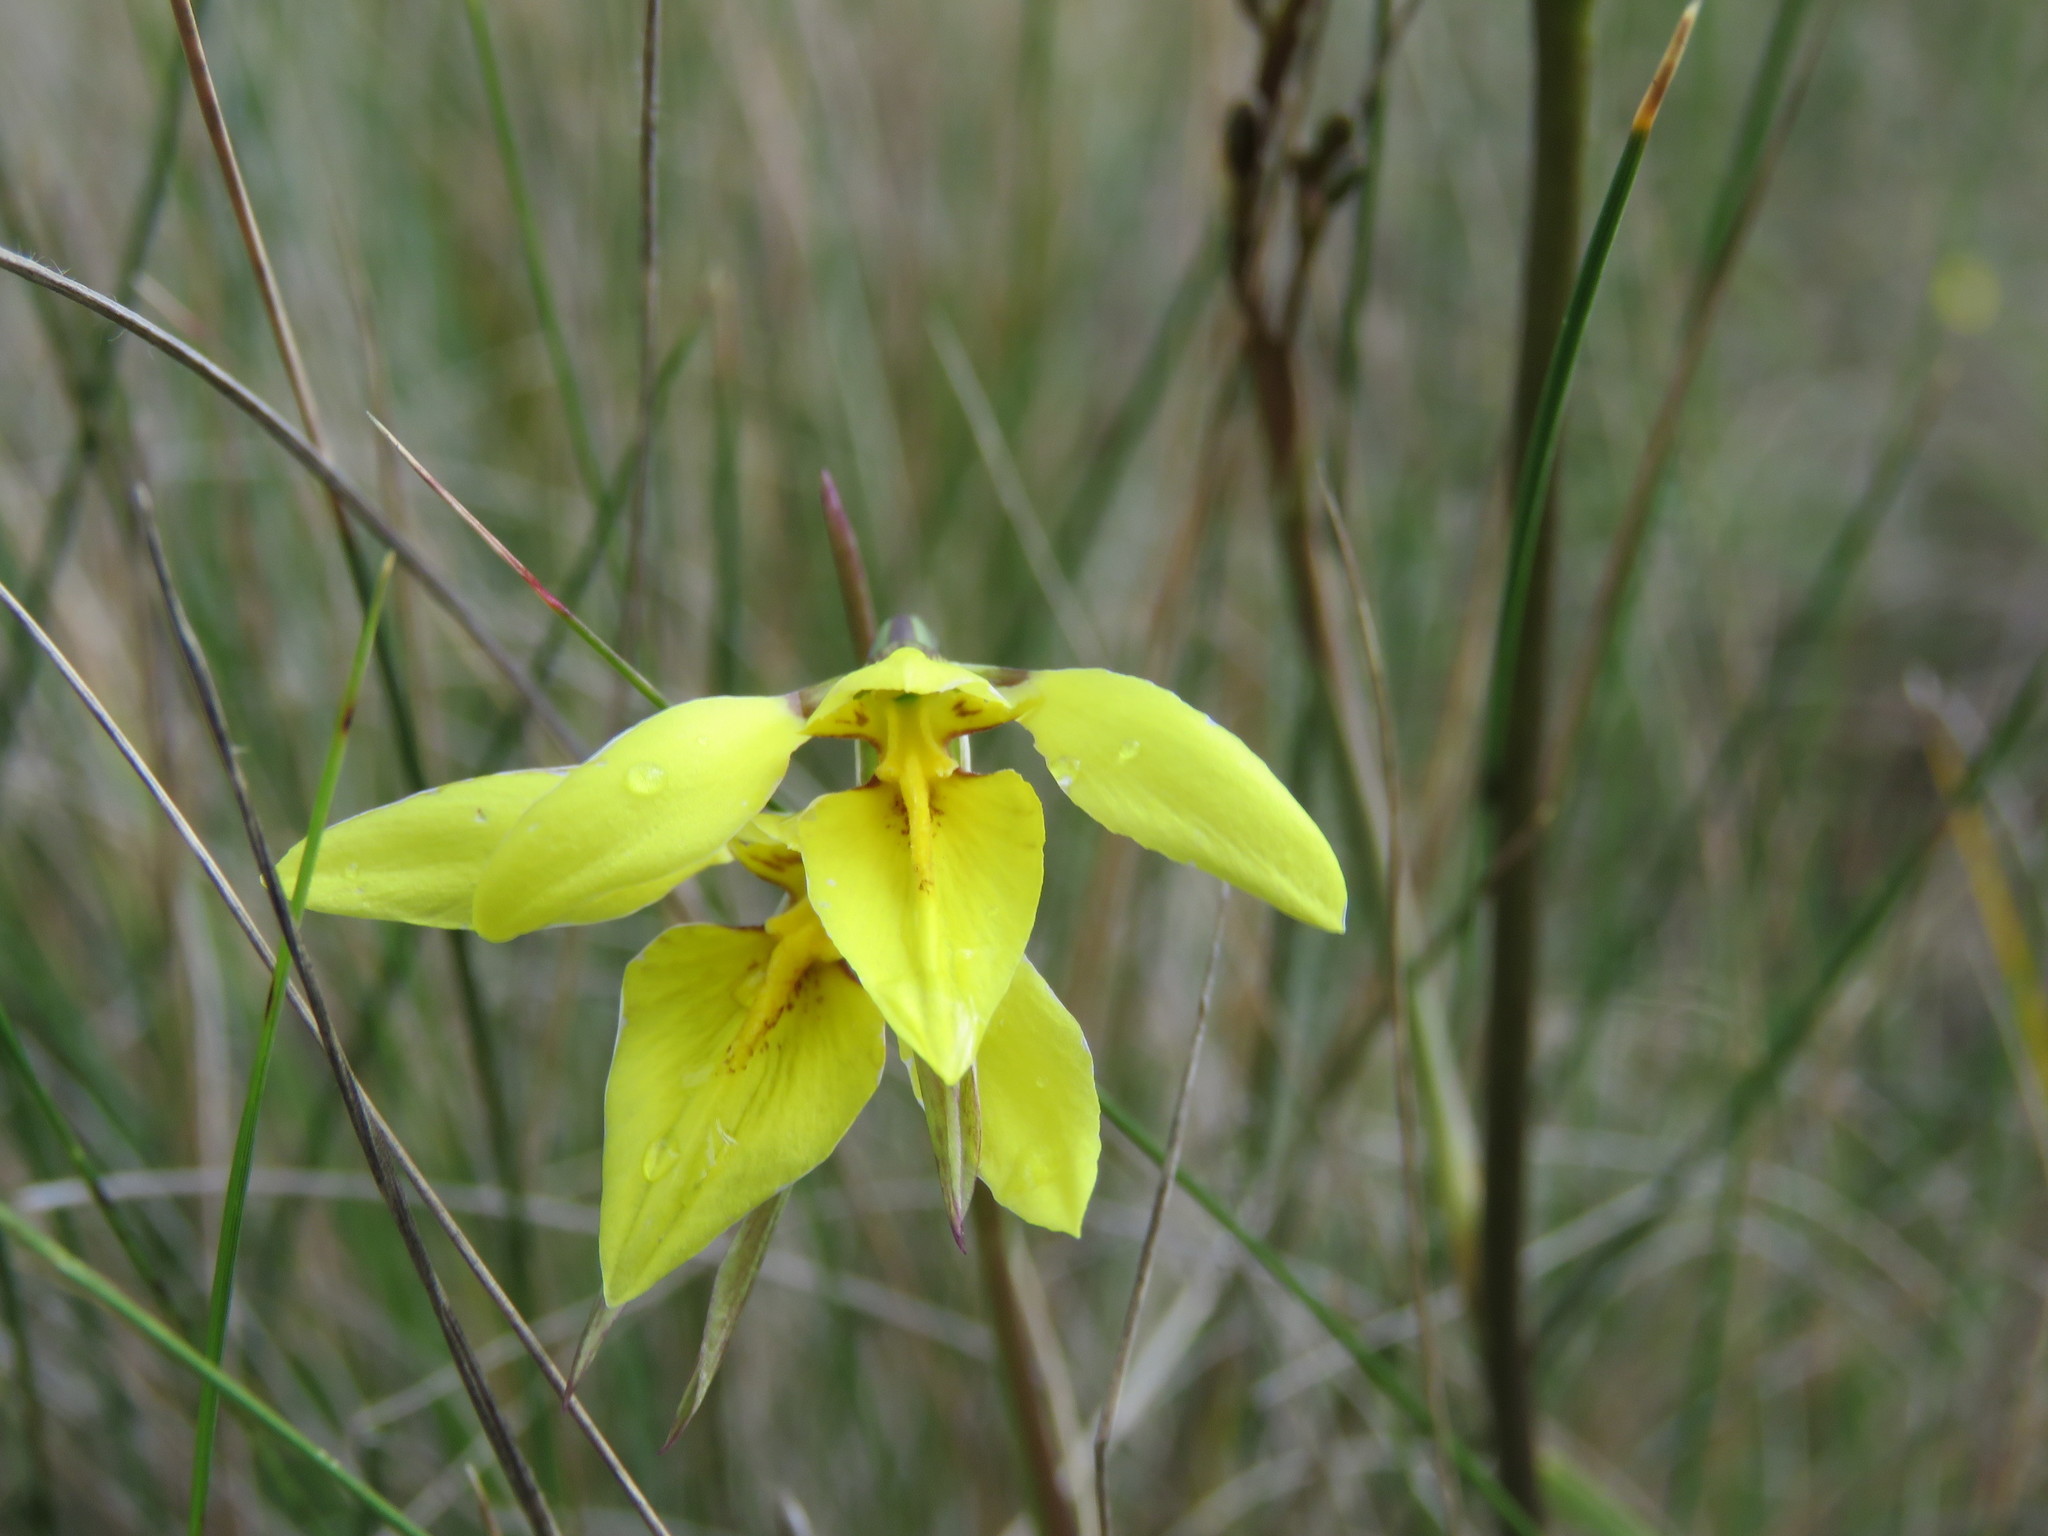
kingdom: Plantae
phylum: Tracheophyta
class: Liliopsida
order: Asparagales
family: Orchidaceae
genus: Diuris
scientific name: Diuris chryseopsis
